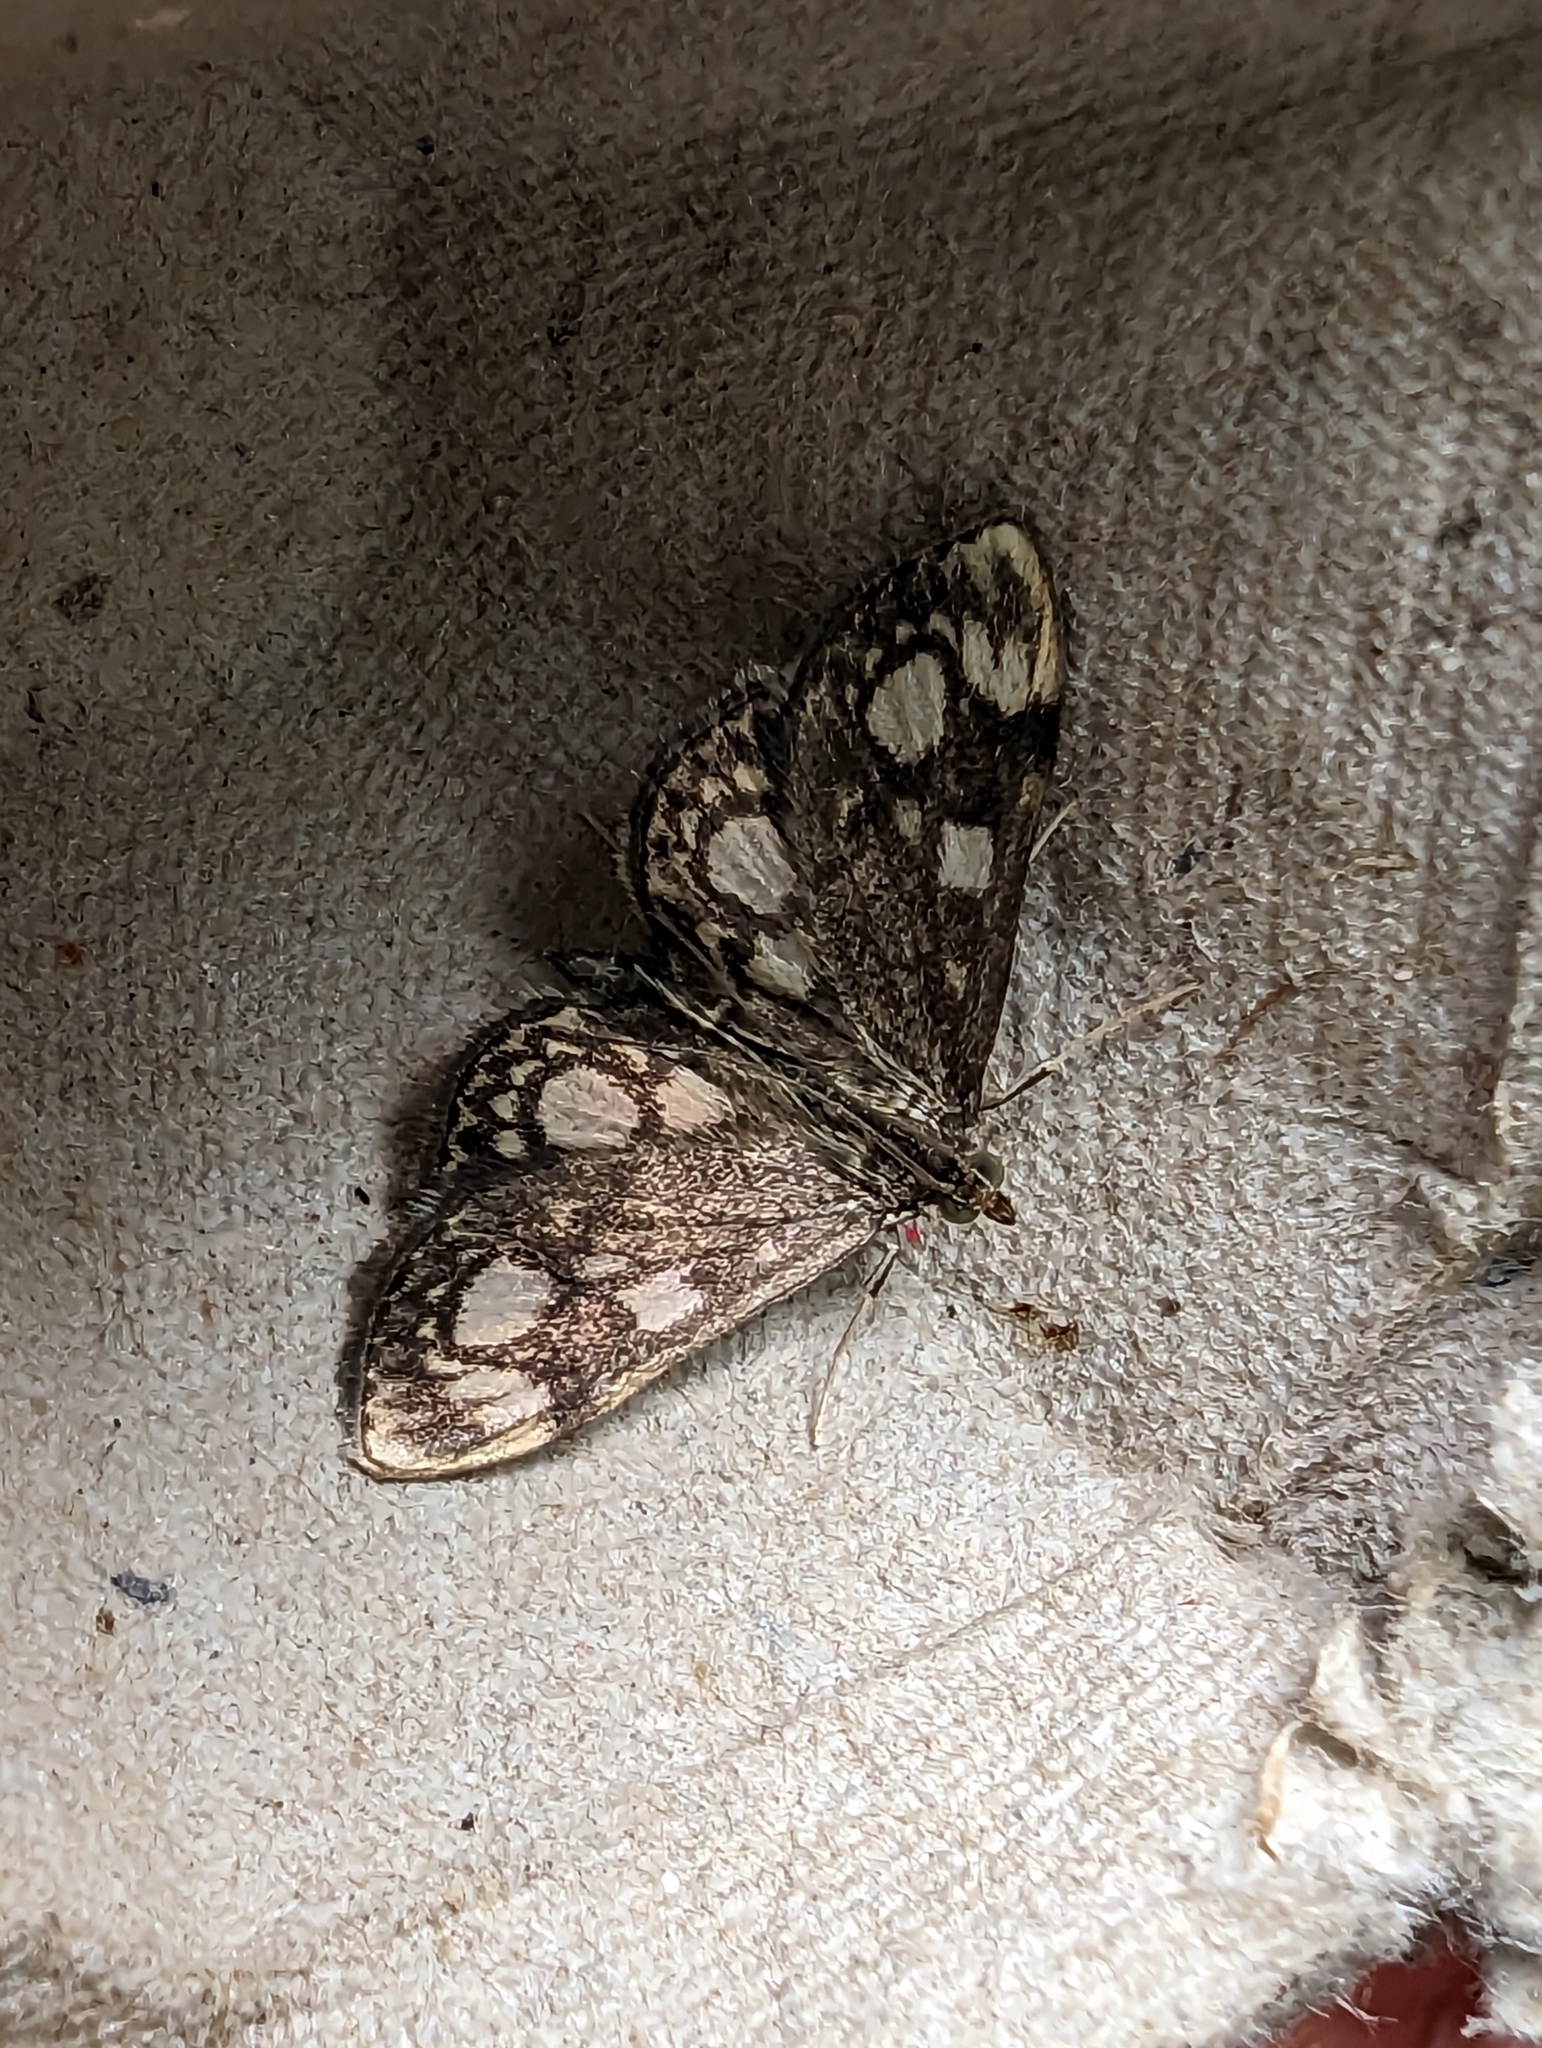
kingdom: Animalia
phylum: Arthropoda
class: Insecta
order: Lepidoptera
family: Crambidae
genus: Anania
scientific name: Anania coronata
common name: Elder pearl
